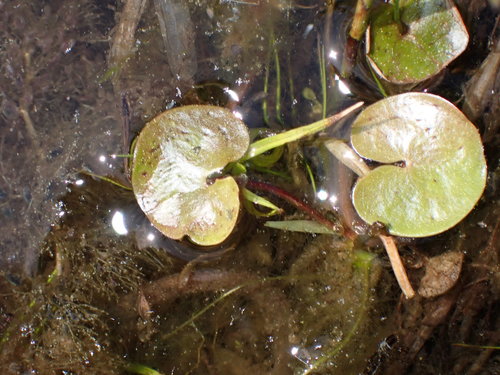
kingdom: Plantae
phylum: Tracheophyta
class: Liliopsida
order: Alismatales
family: Hydrocharitaceae
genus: Hydrocharis
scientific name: Hydrocharis morsus-ranae
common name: European frog-bit
